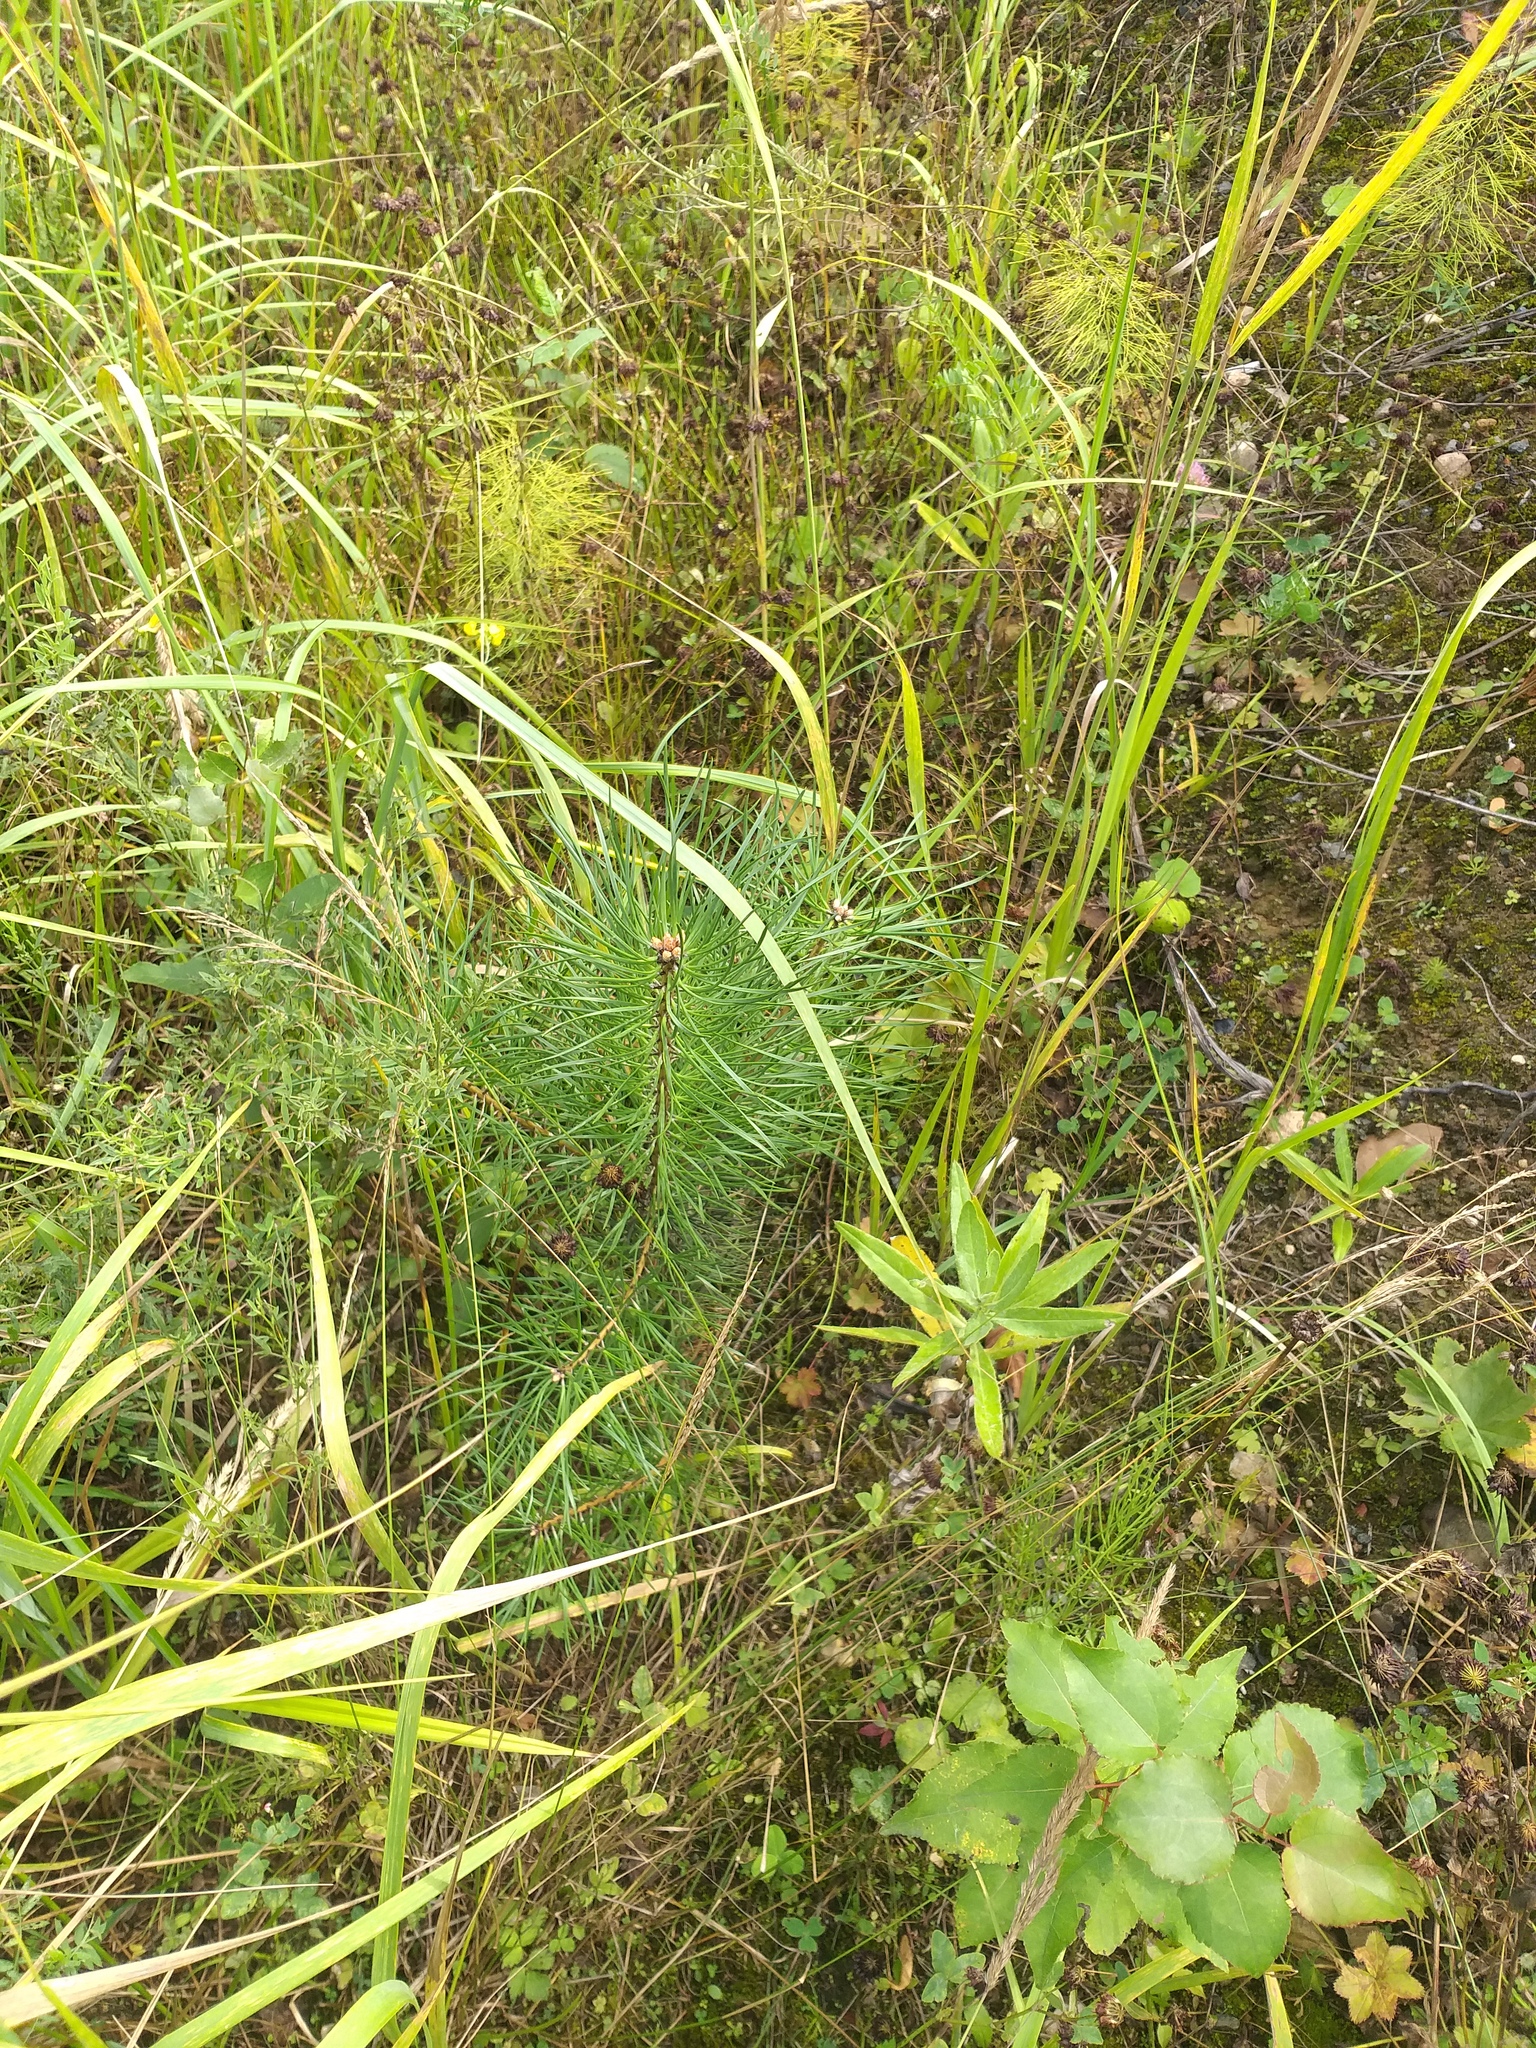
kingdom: Plantae
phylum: Tracheophyta
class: Pinopsida
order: Pinales
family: Pinaceae
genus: Pinus
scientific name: Pinus sylvestris
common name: Scots pine
